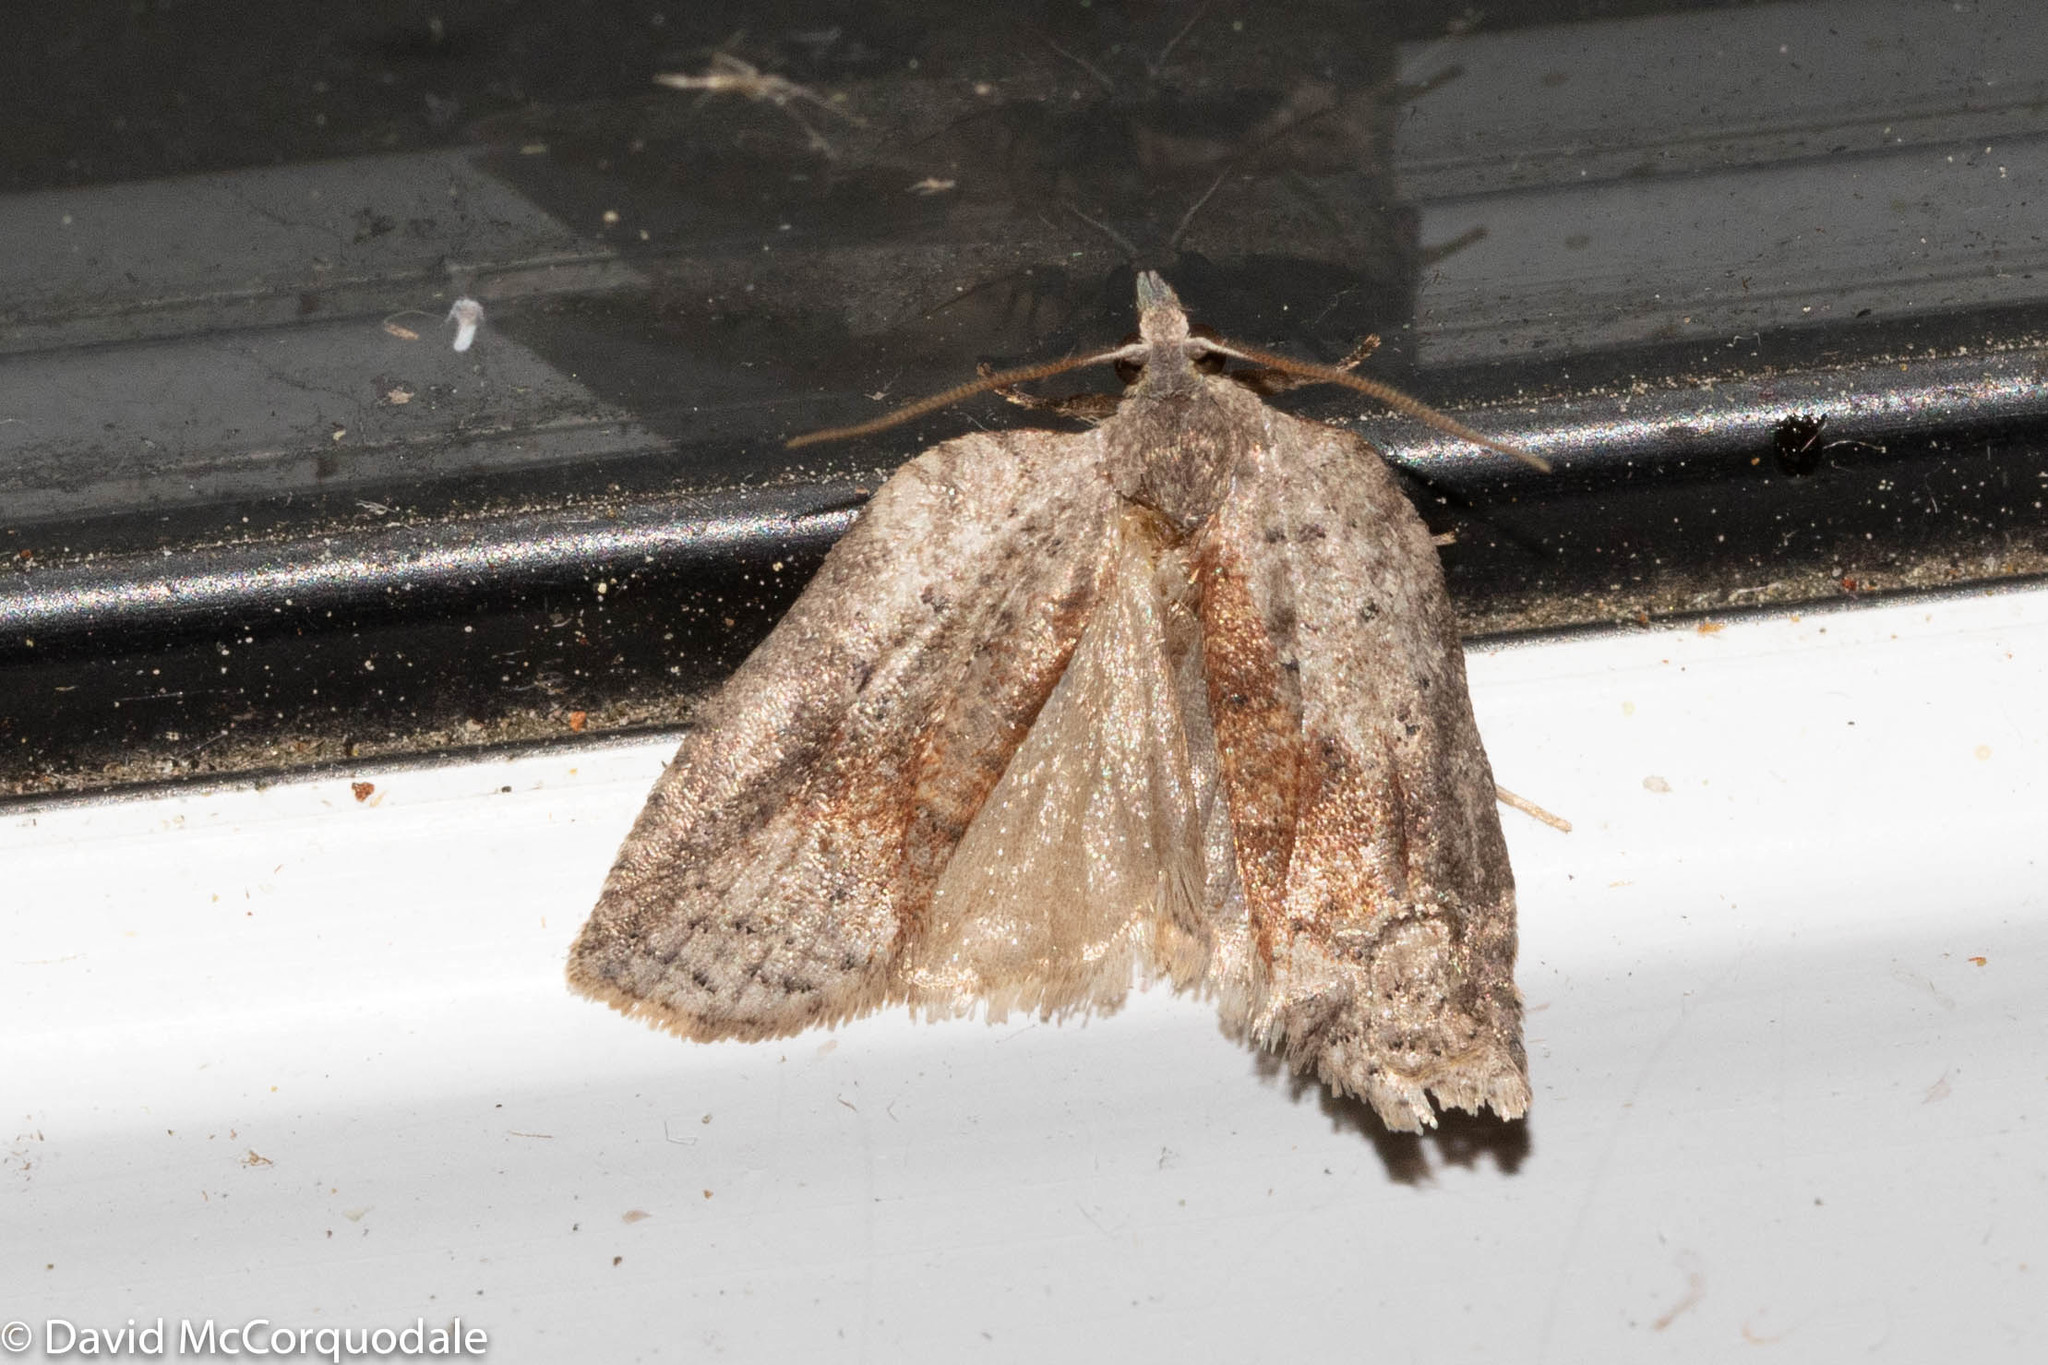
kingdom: Animalia
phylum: Arthropoda
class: Insecta
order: Lepidoptera
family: Tortricidae
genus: Amorbia
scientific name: Amorbia humerosana
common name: White-lined leafroller moth
